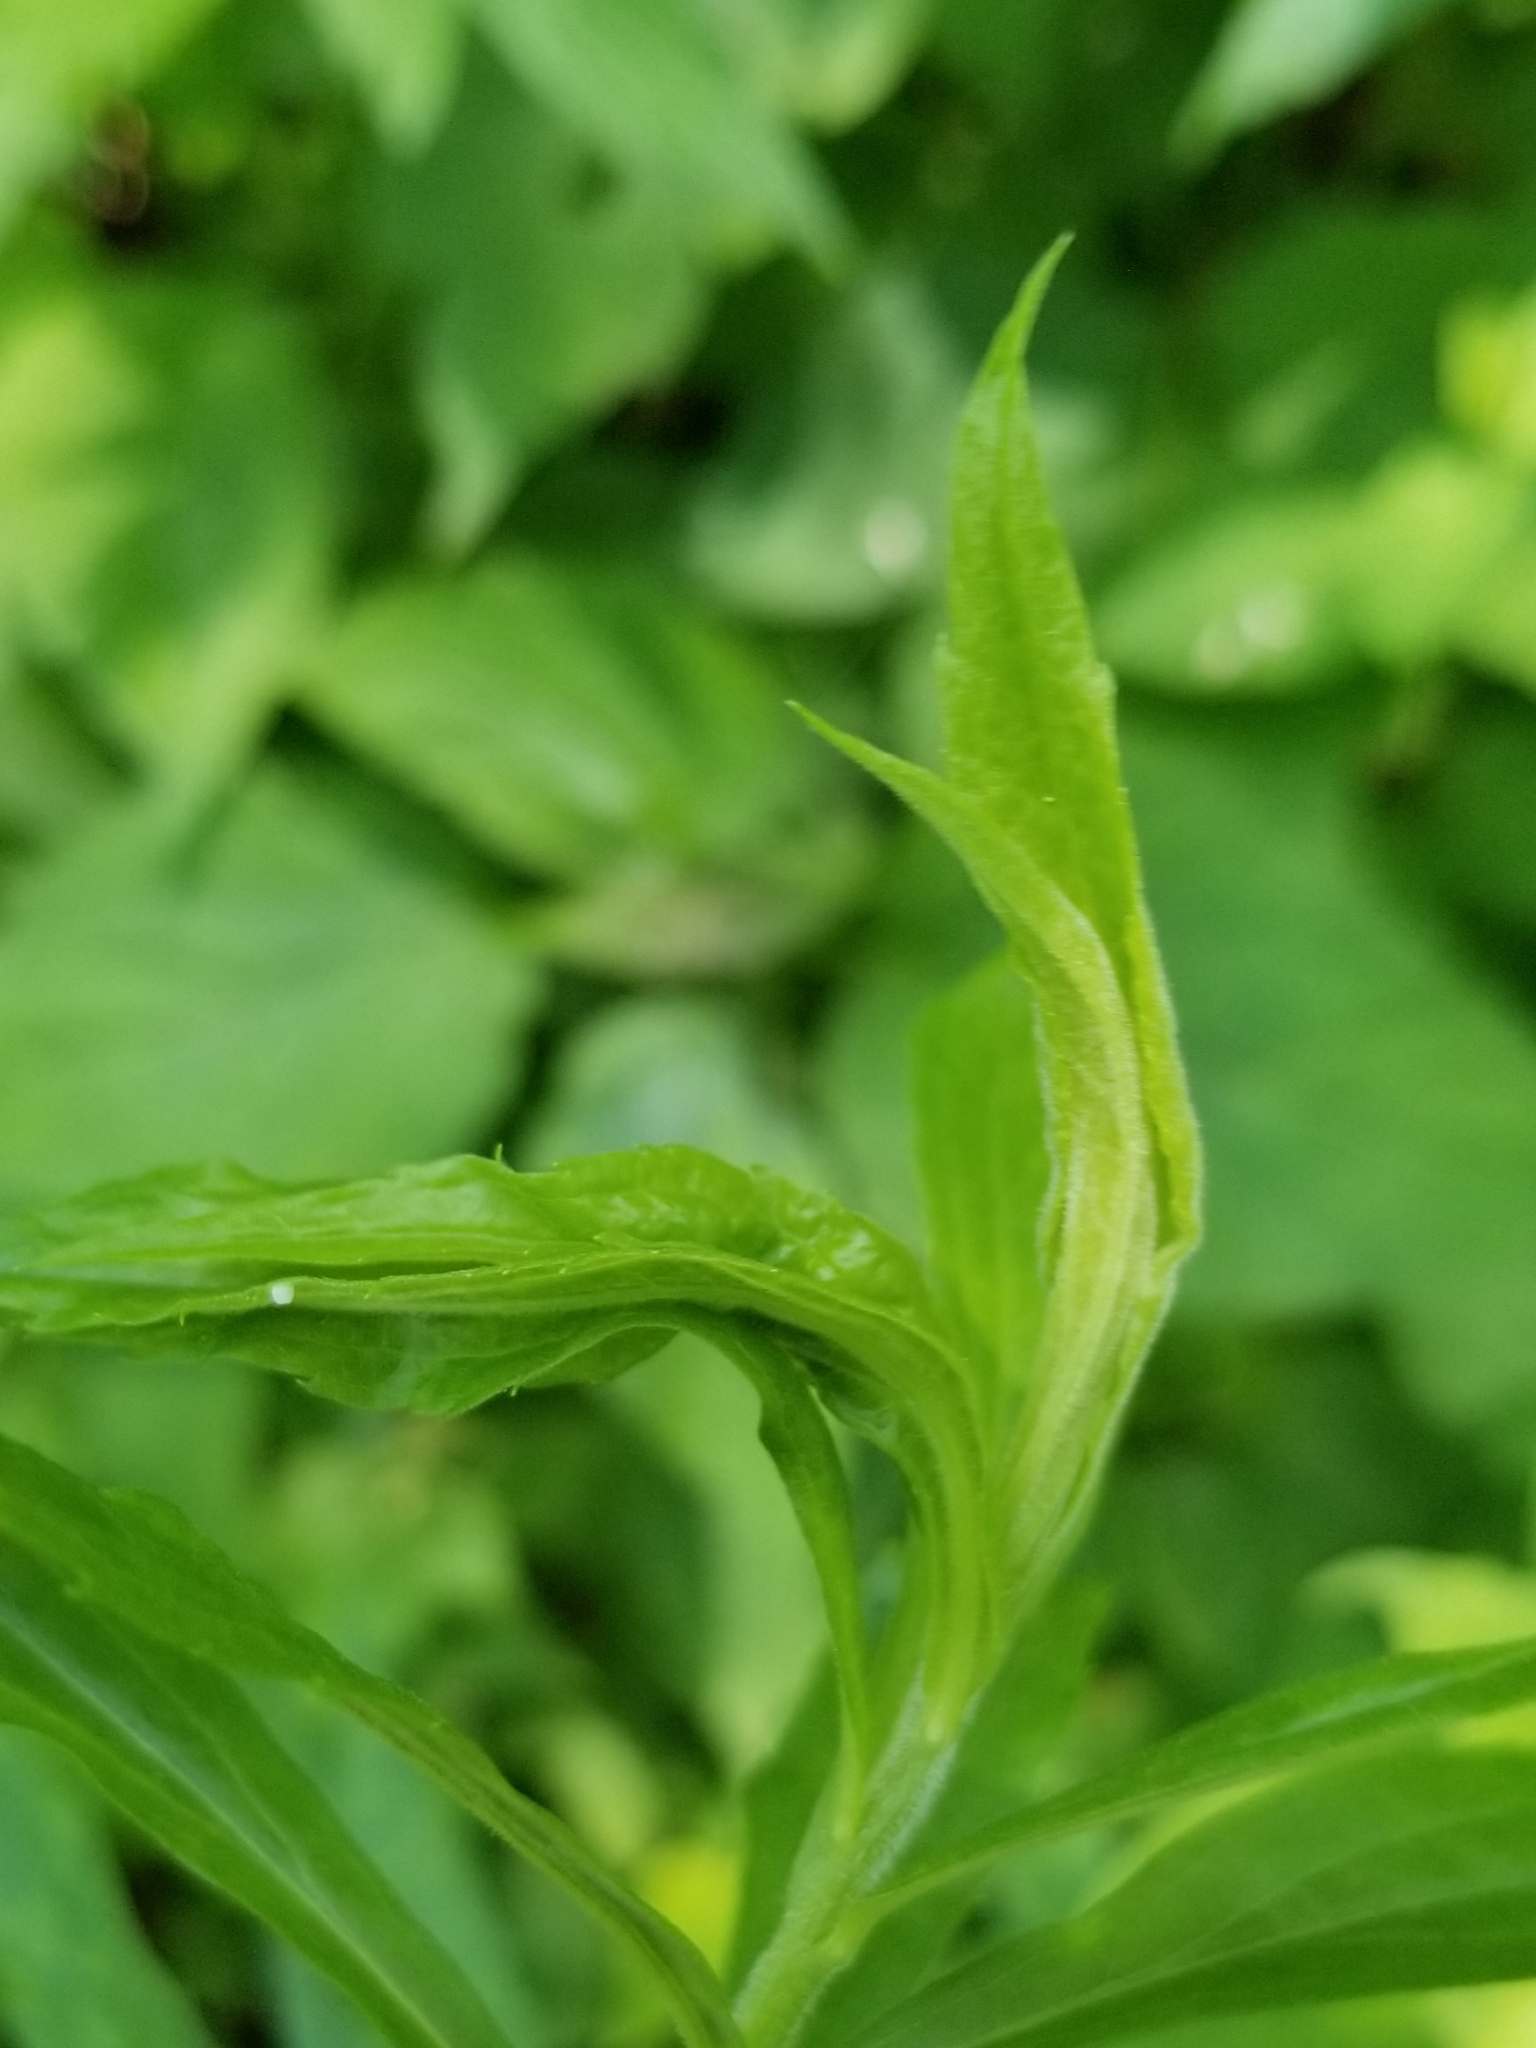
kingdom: Animalia
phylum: Arthropoda
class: Insecta
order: Diptera
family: Cecidomyiidae
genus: Asphondylia
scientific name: Asphondylia solidaginis
